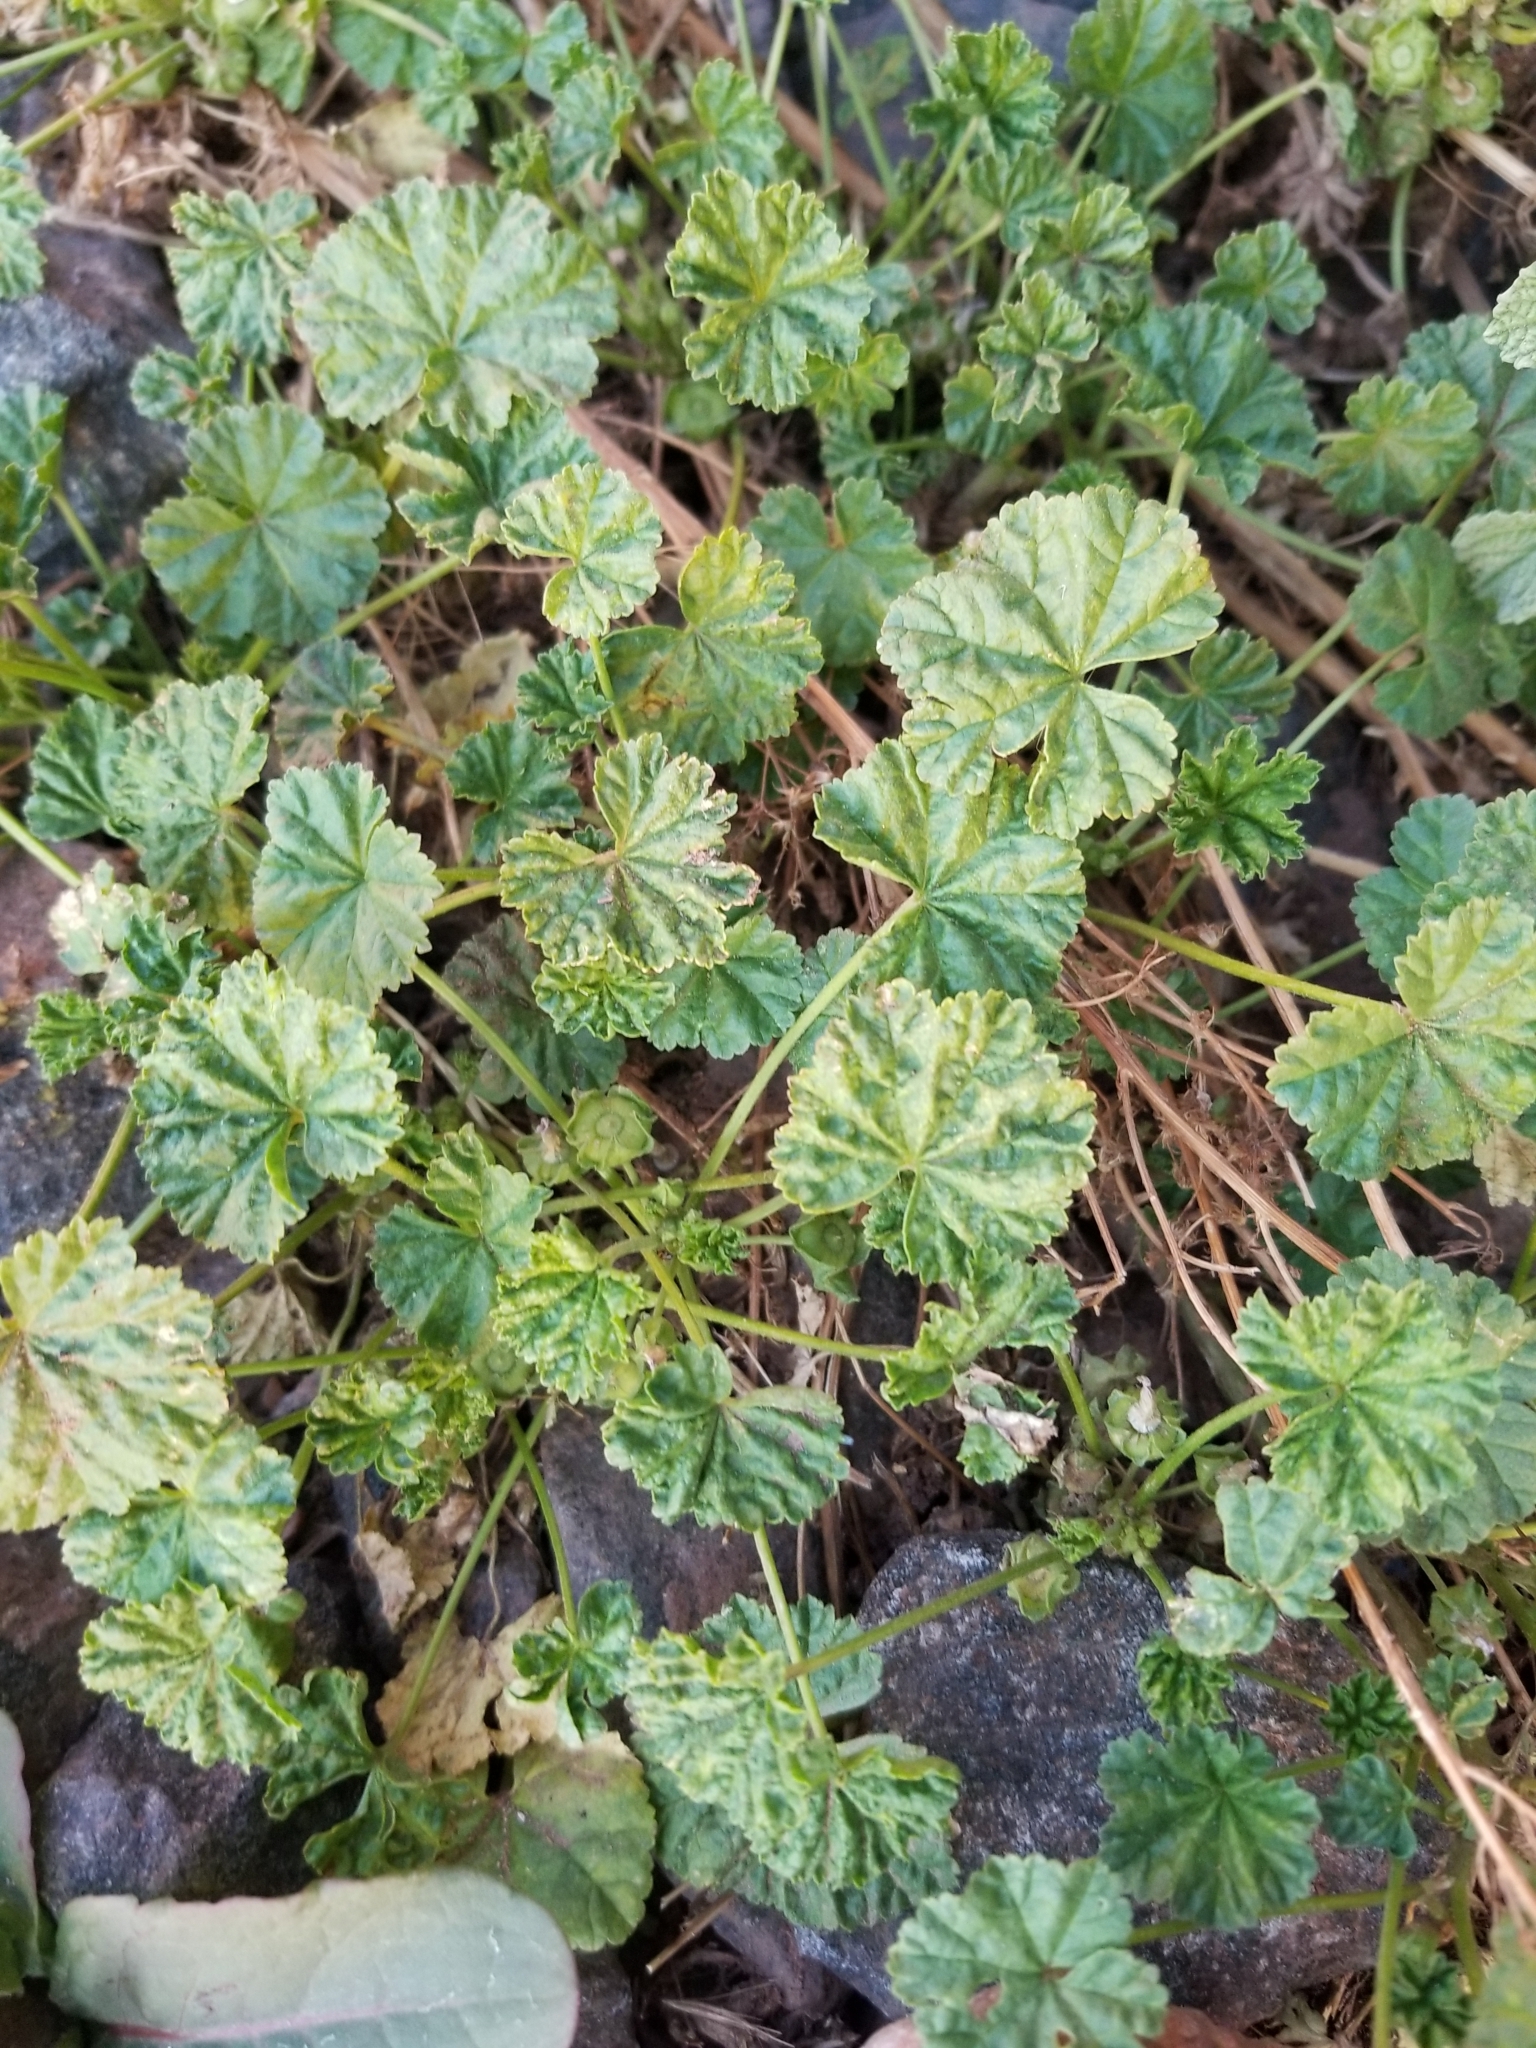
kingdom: Plantae
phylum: Tracheophyta
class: Magnoliopsida
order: Malvales
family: Malvaceae
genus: Malva
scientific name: Malva neglecta
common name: Common mallow
